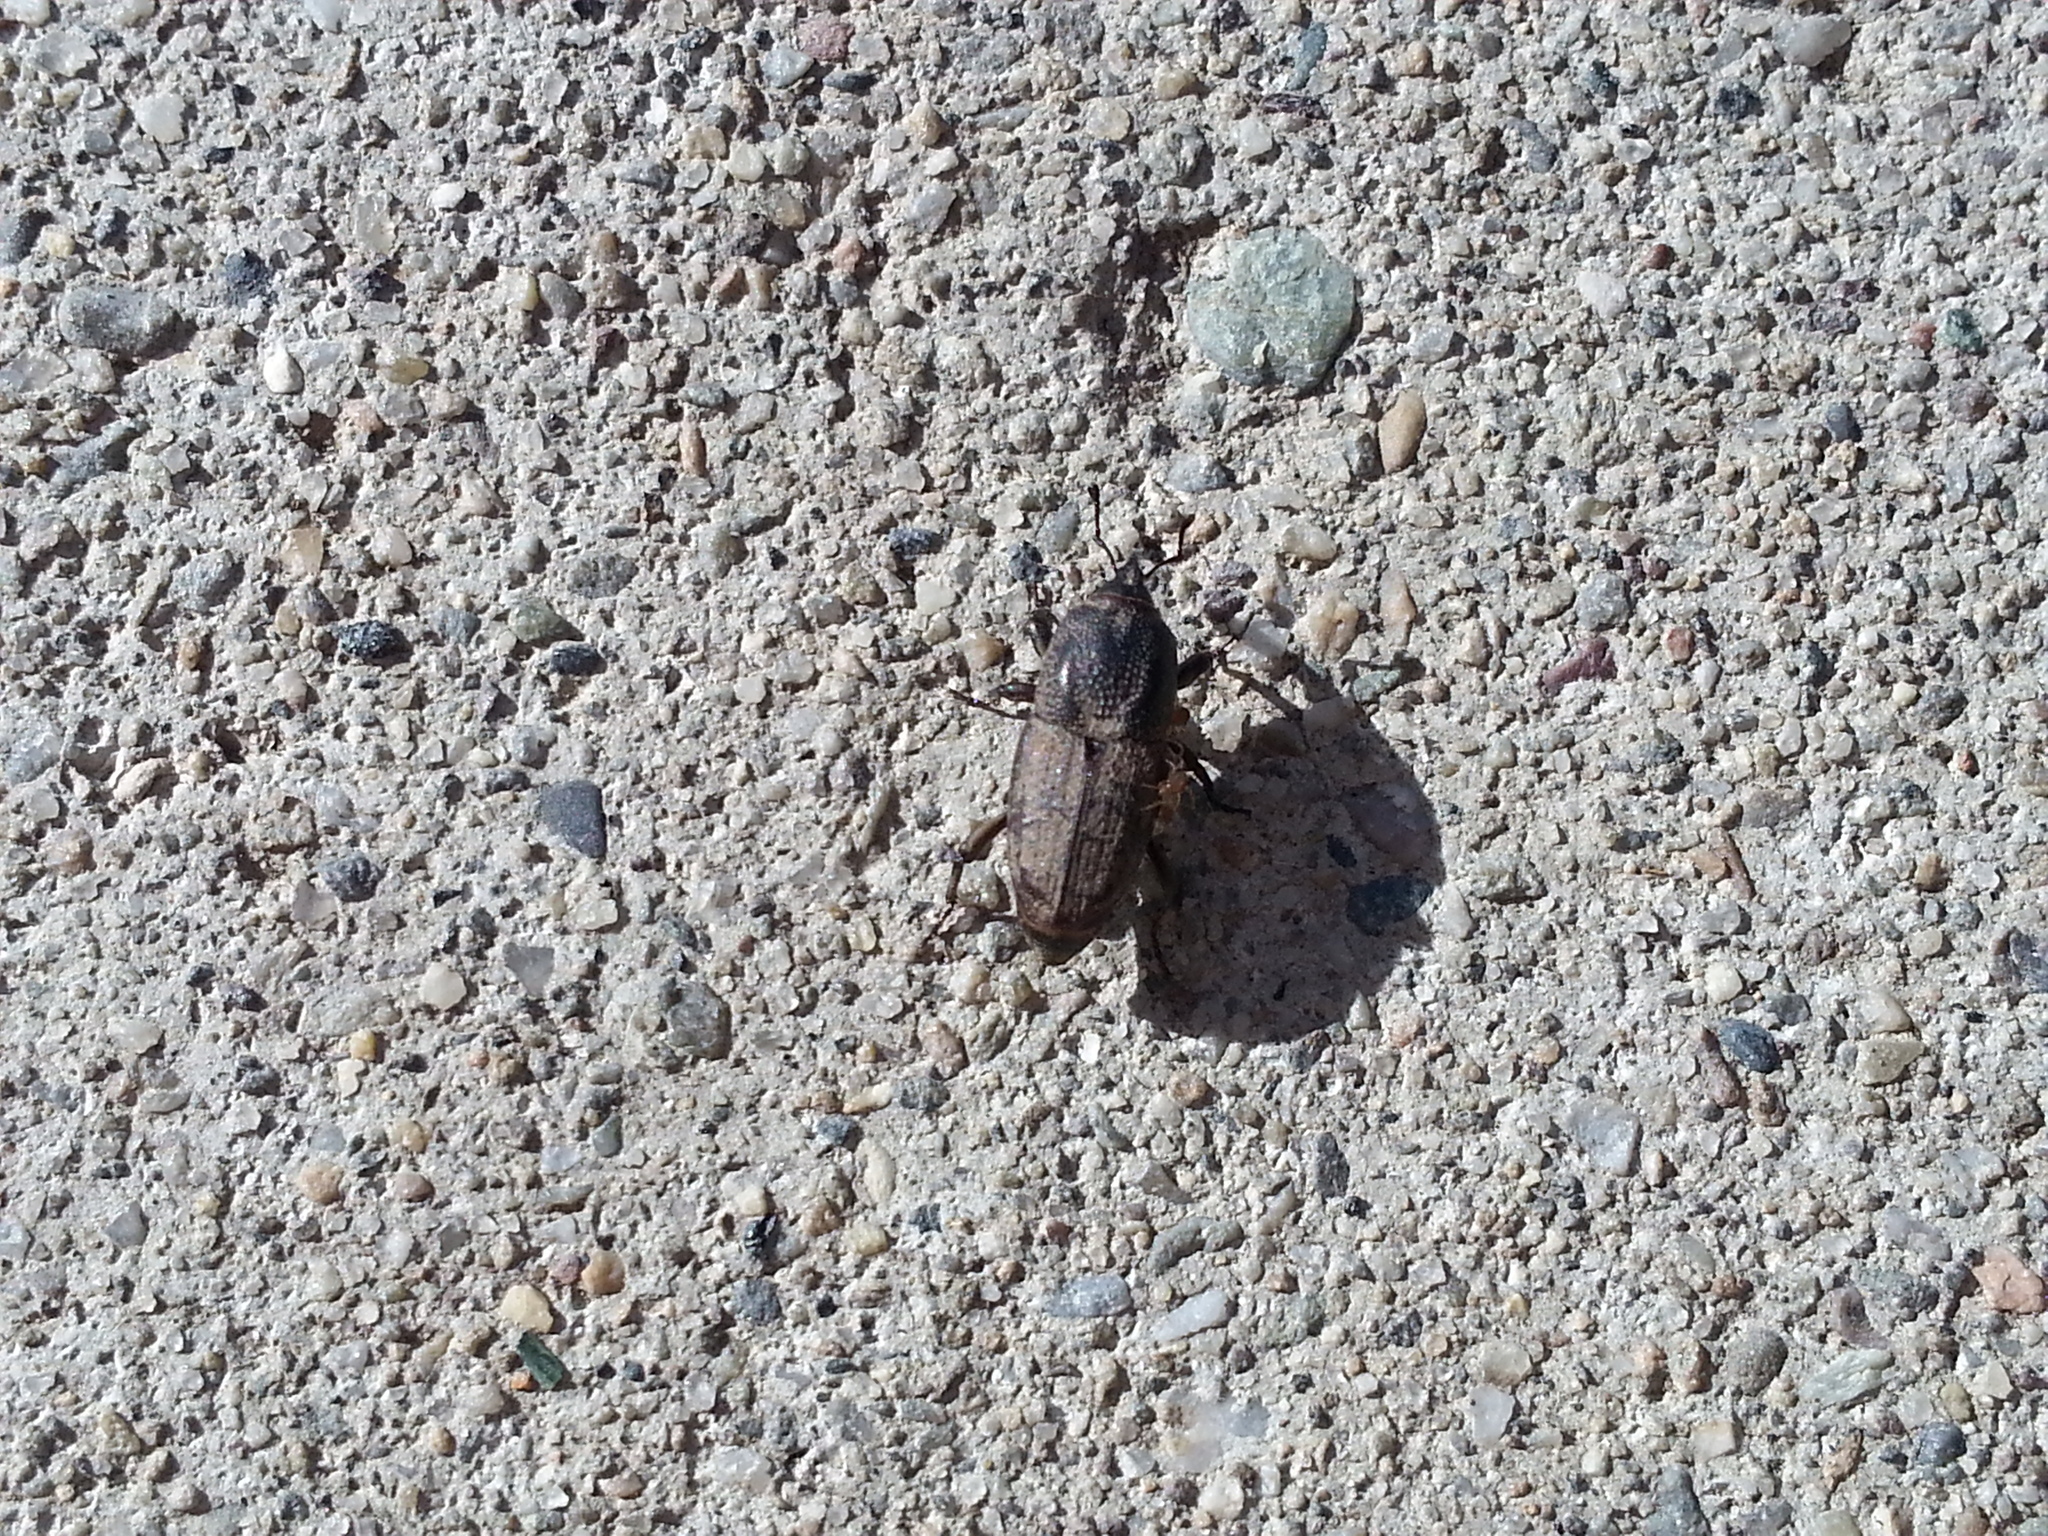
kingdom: Animalia
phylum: Arthropoda
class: Insecta
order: Coleoptera
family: Dryophthoridae
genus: Sphenophorus
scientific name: Sphenophorus venatus
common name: Hunting billbug
